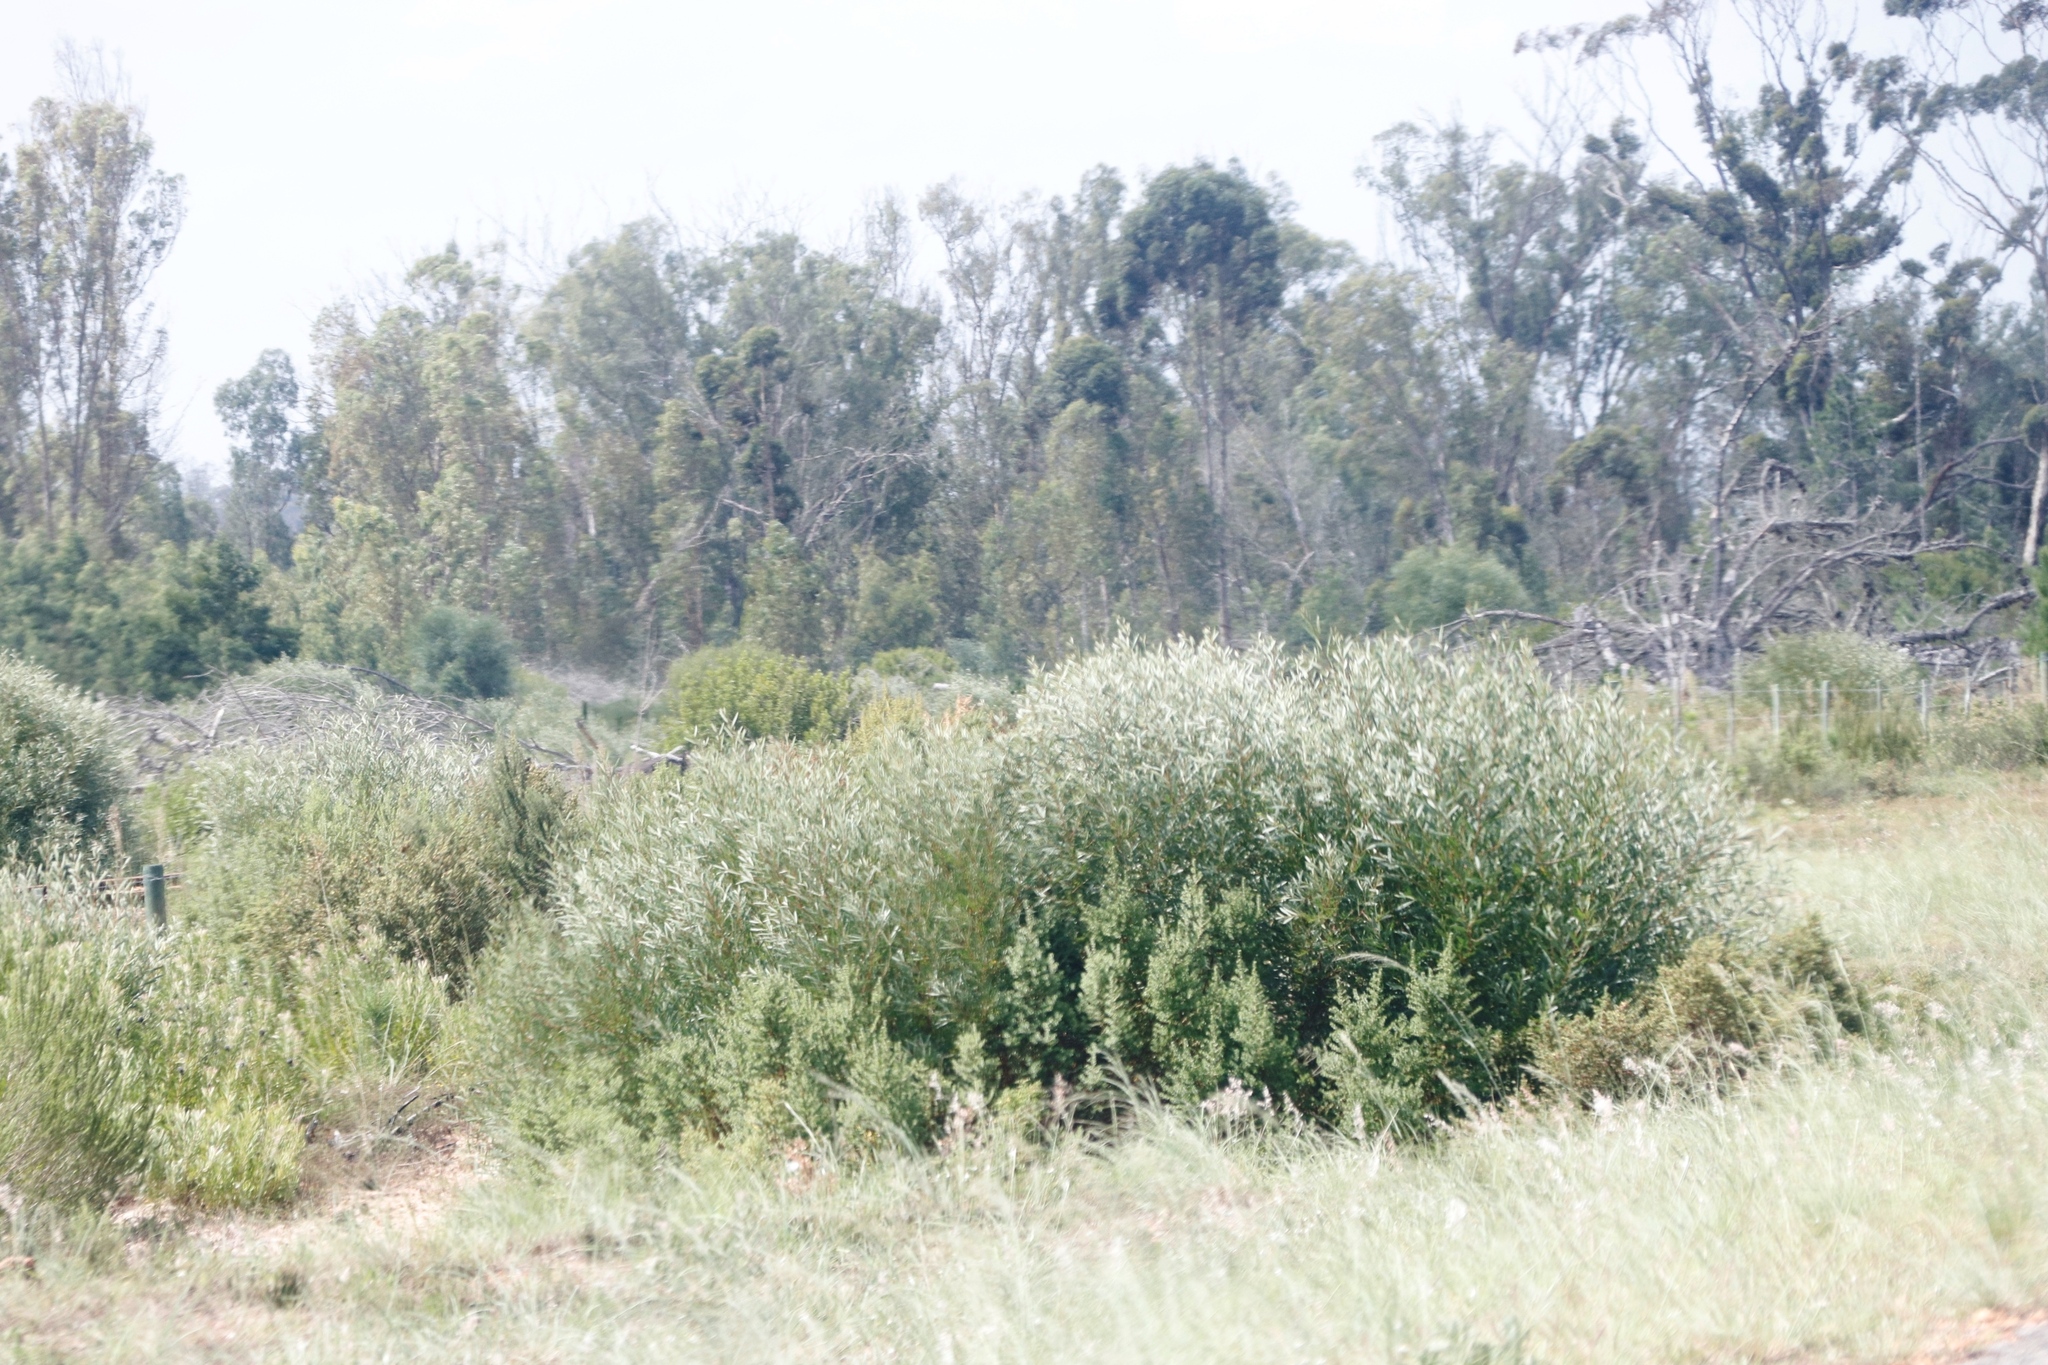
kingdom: Plantae
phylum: Tracheophyta
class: Magnoliopsida
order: Fabales
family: Fabaceae
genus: Acacia
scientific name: Acacia longifolia
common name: Sydney golden wattle
